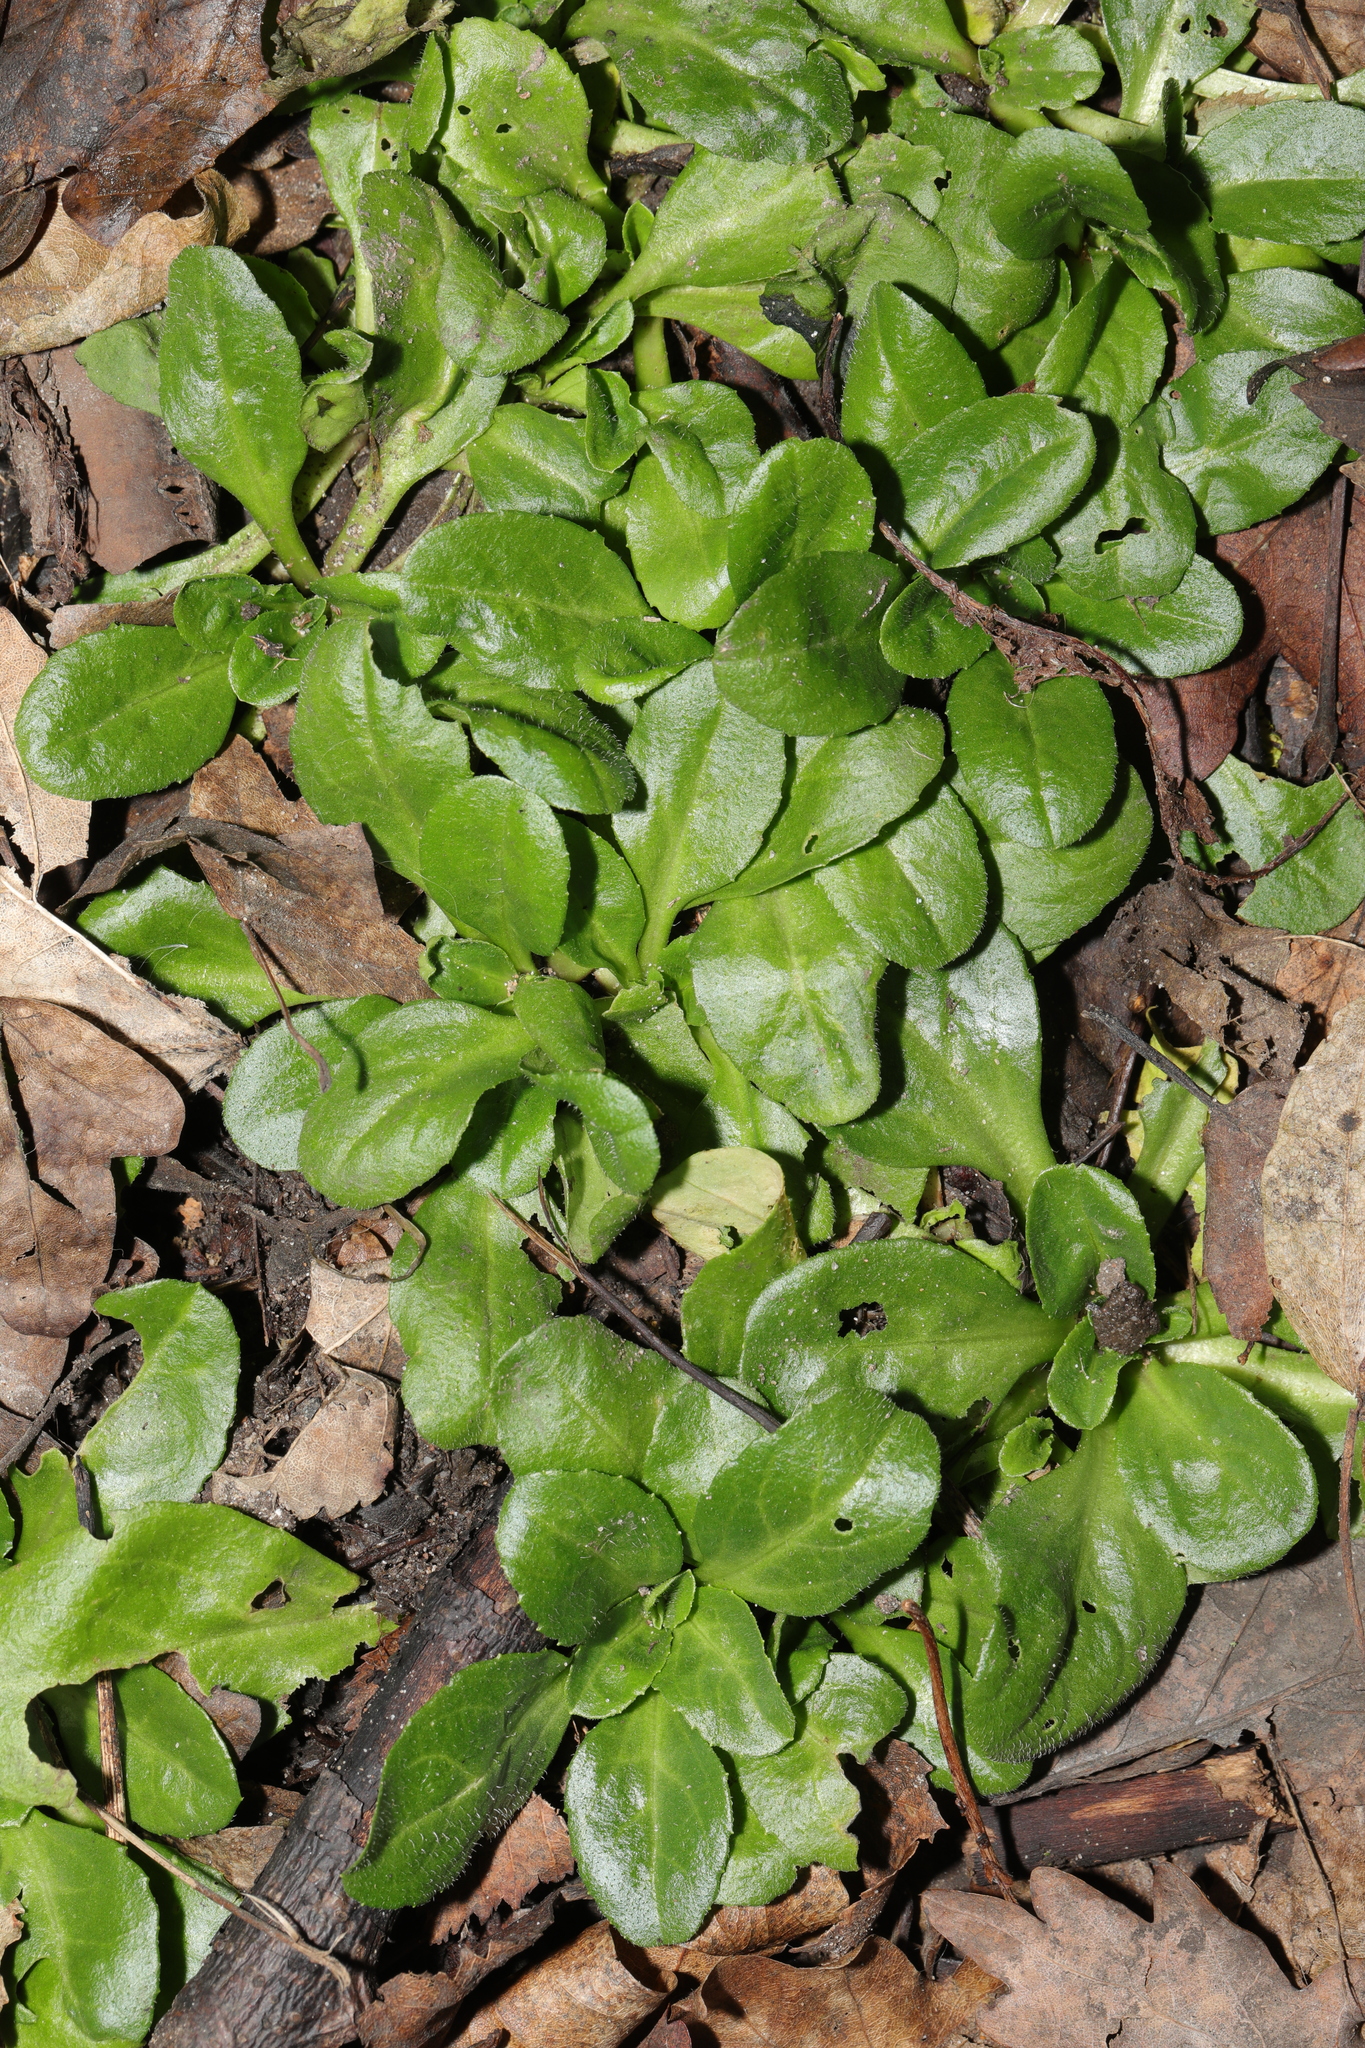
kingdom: Plantae
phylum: Tracheophyta
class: Magnoliopsida
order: Asterales
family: Asteraceae
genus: Bellis
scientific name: Bellis perennis
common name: Lawndaisy
